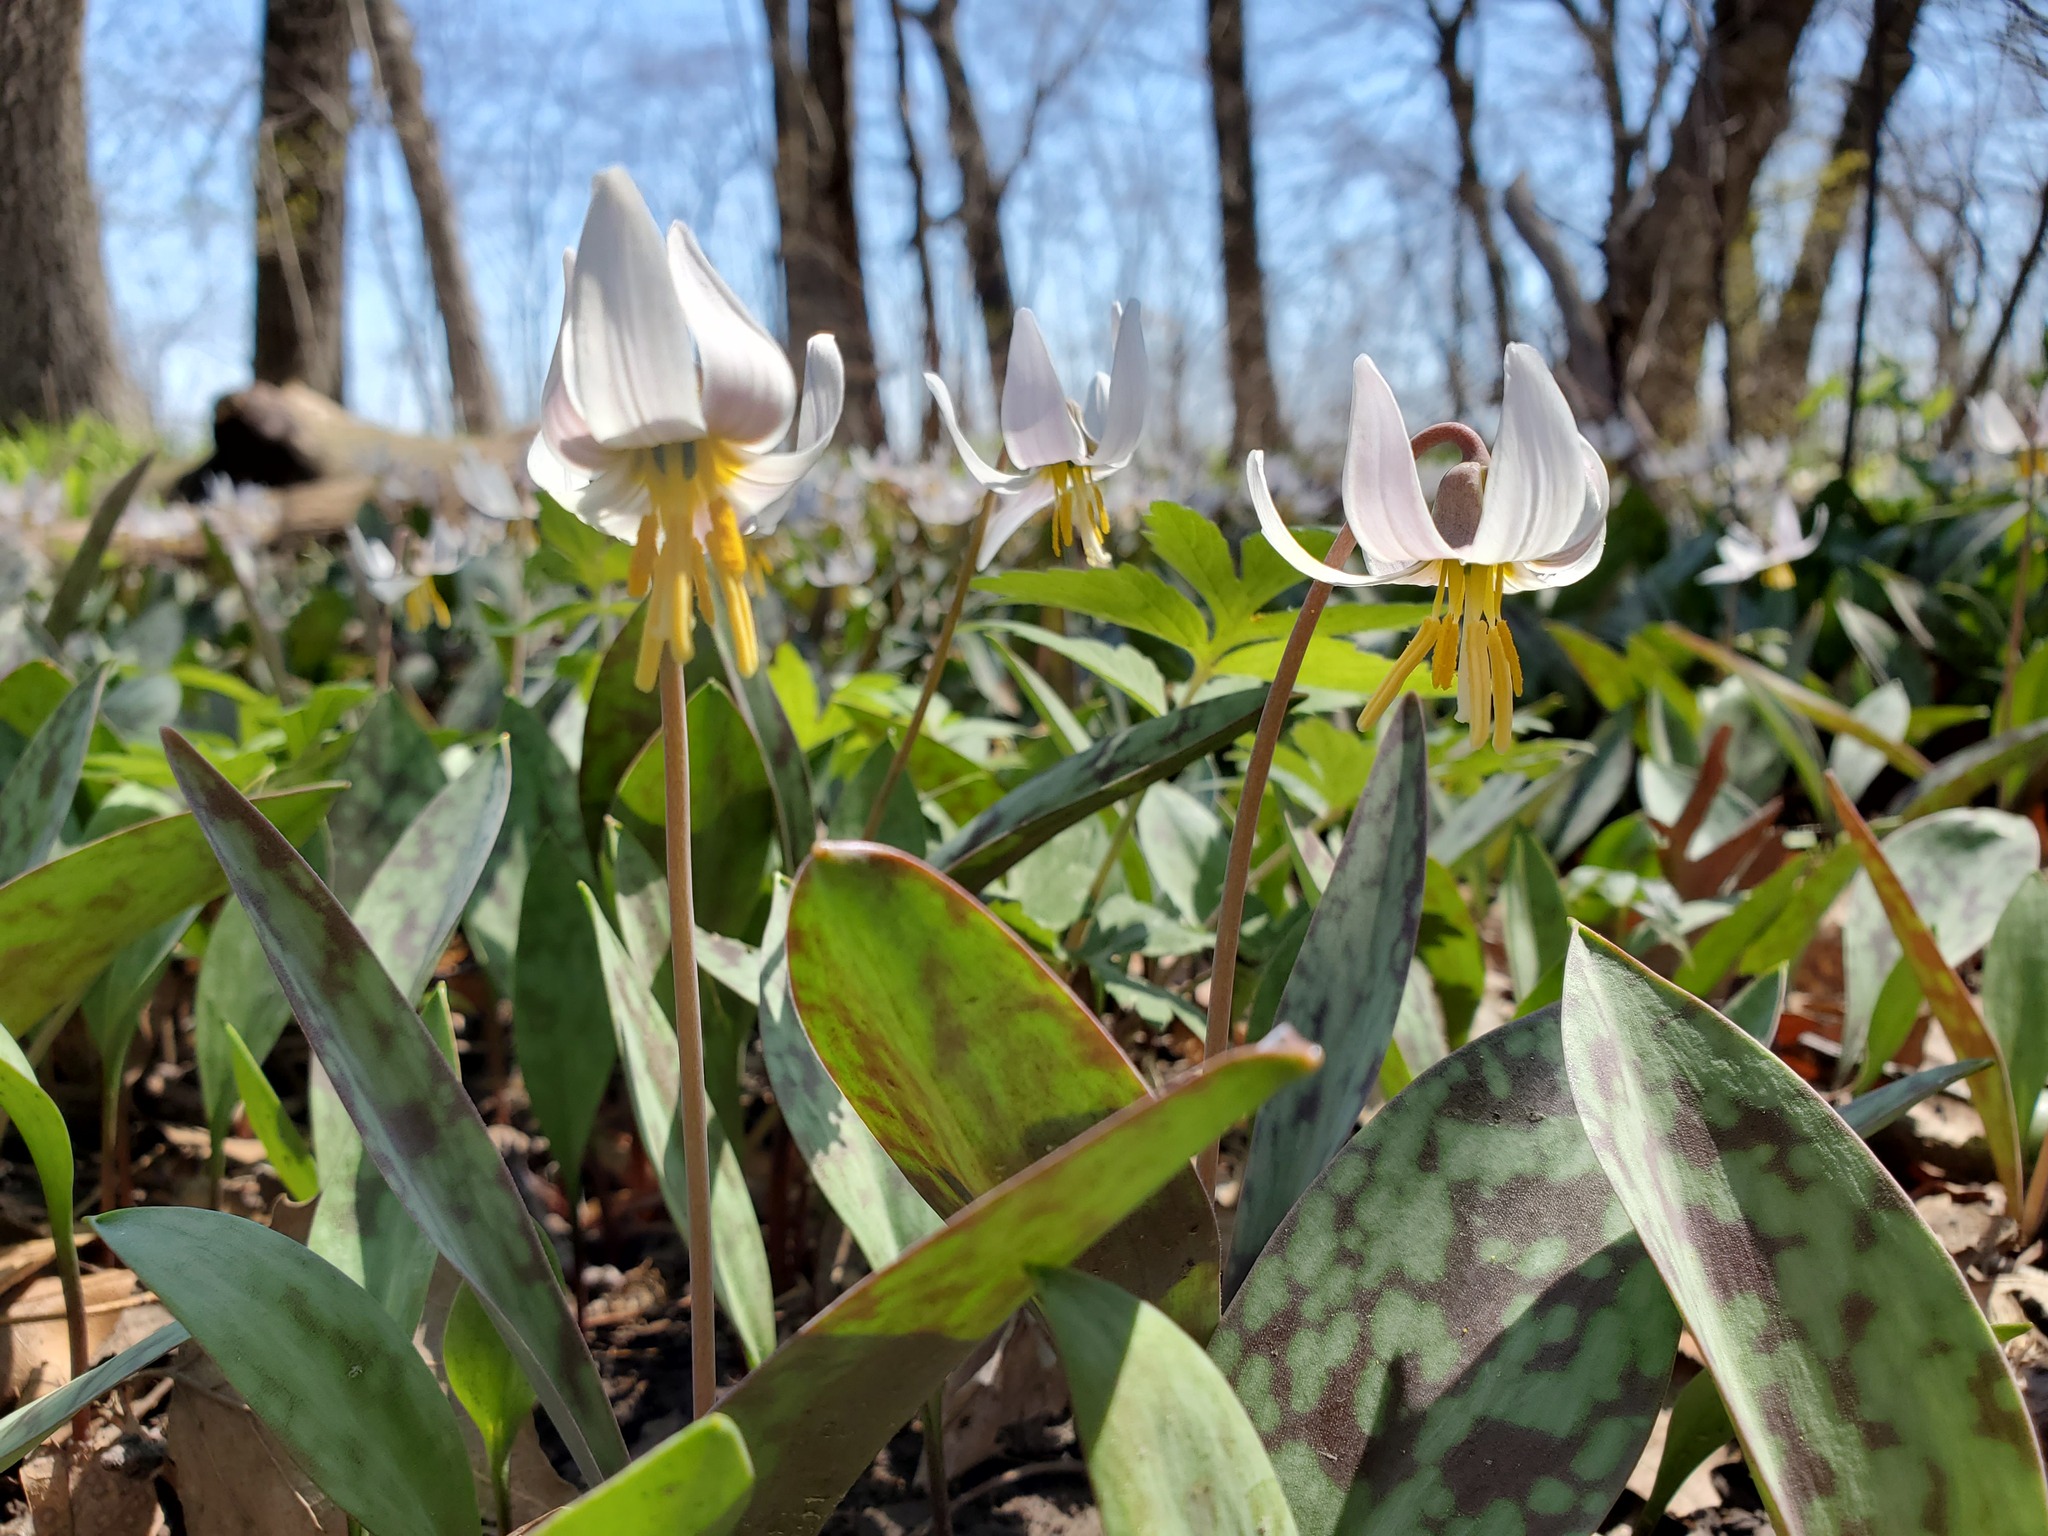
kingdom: Plantae
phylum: Tracheophyta
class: Liliopsida
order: Liliales
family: Liliaceae
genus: Erythronium
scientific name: Erythronium albidum
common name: White trout-lily
